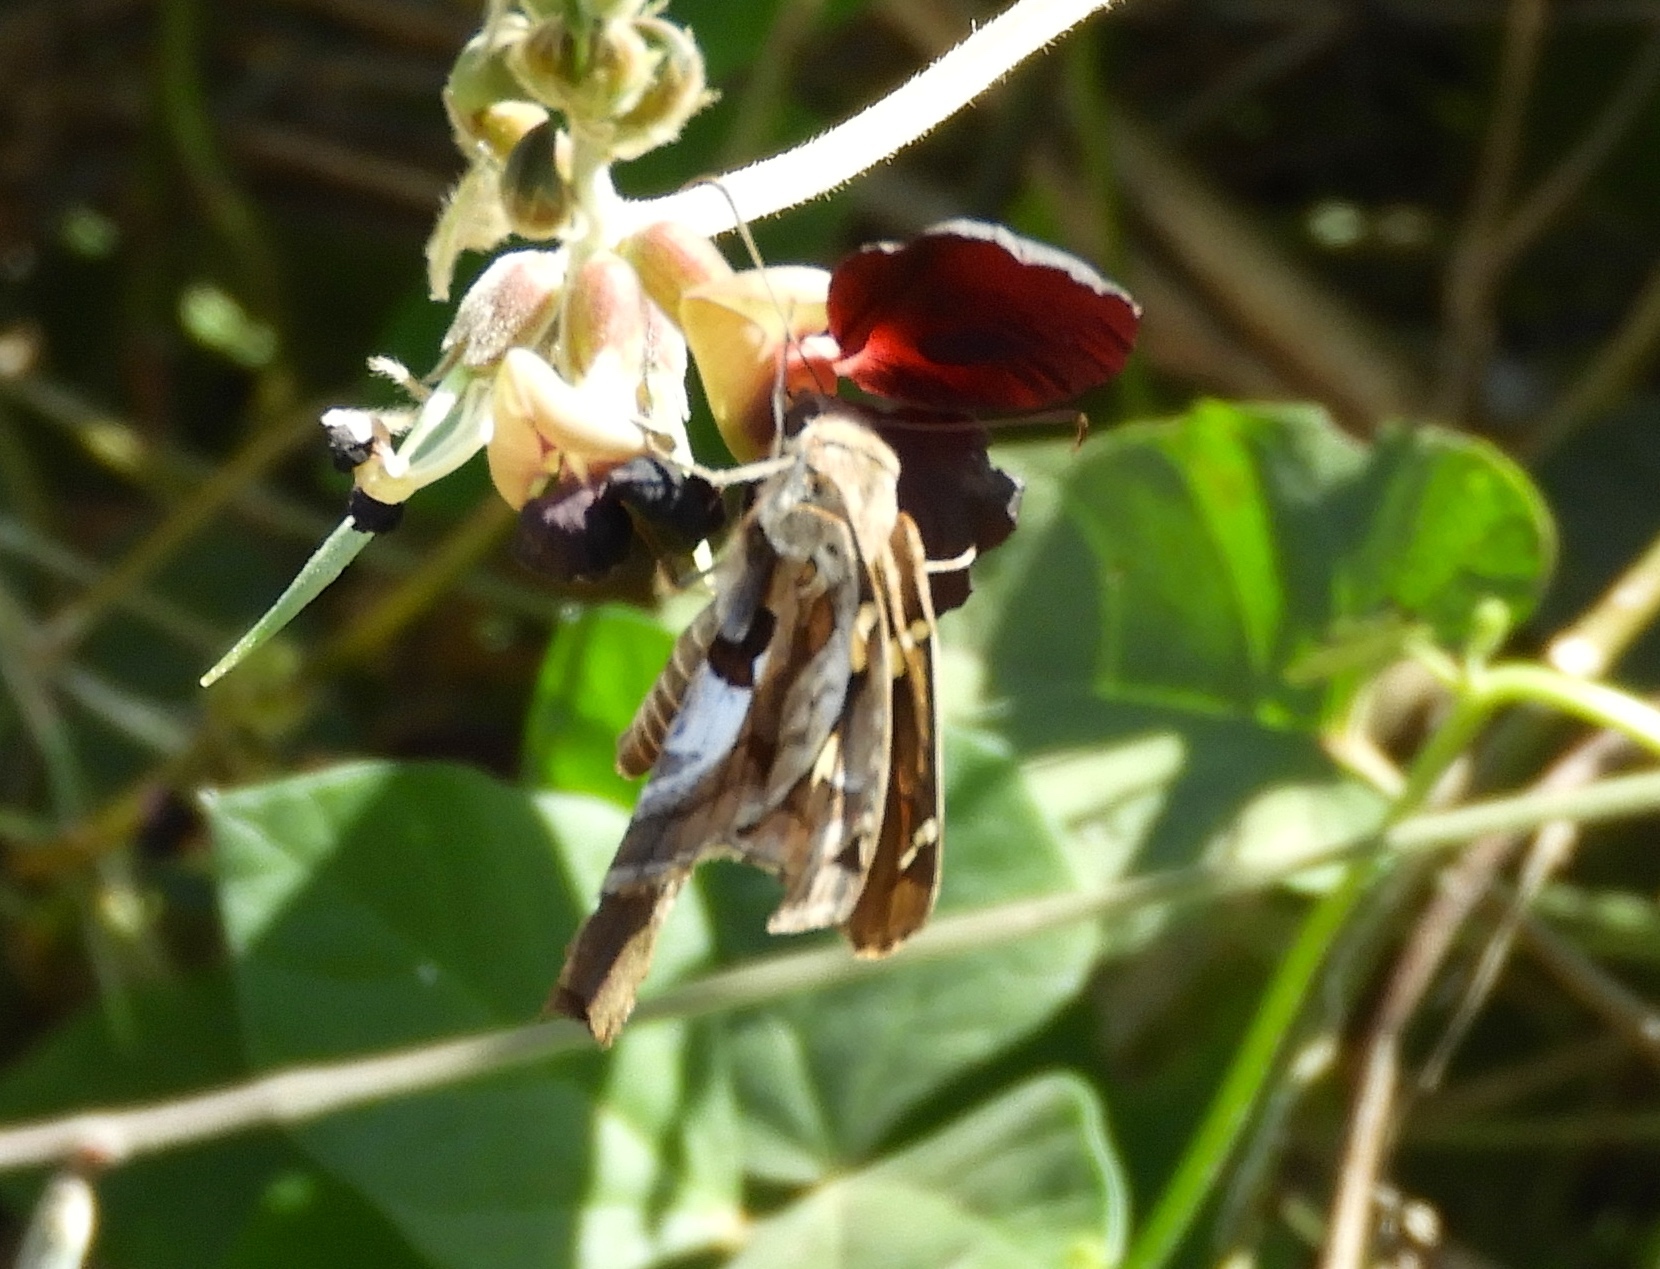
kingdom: Animalia
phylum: Arthropoda
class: Insecta
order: Lepidoptera
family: Hesperiidae
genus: Chioides
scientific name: Chioides zilpa
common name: Zilpa longtail
